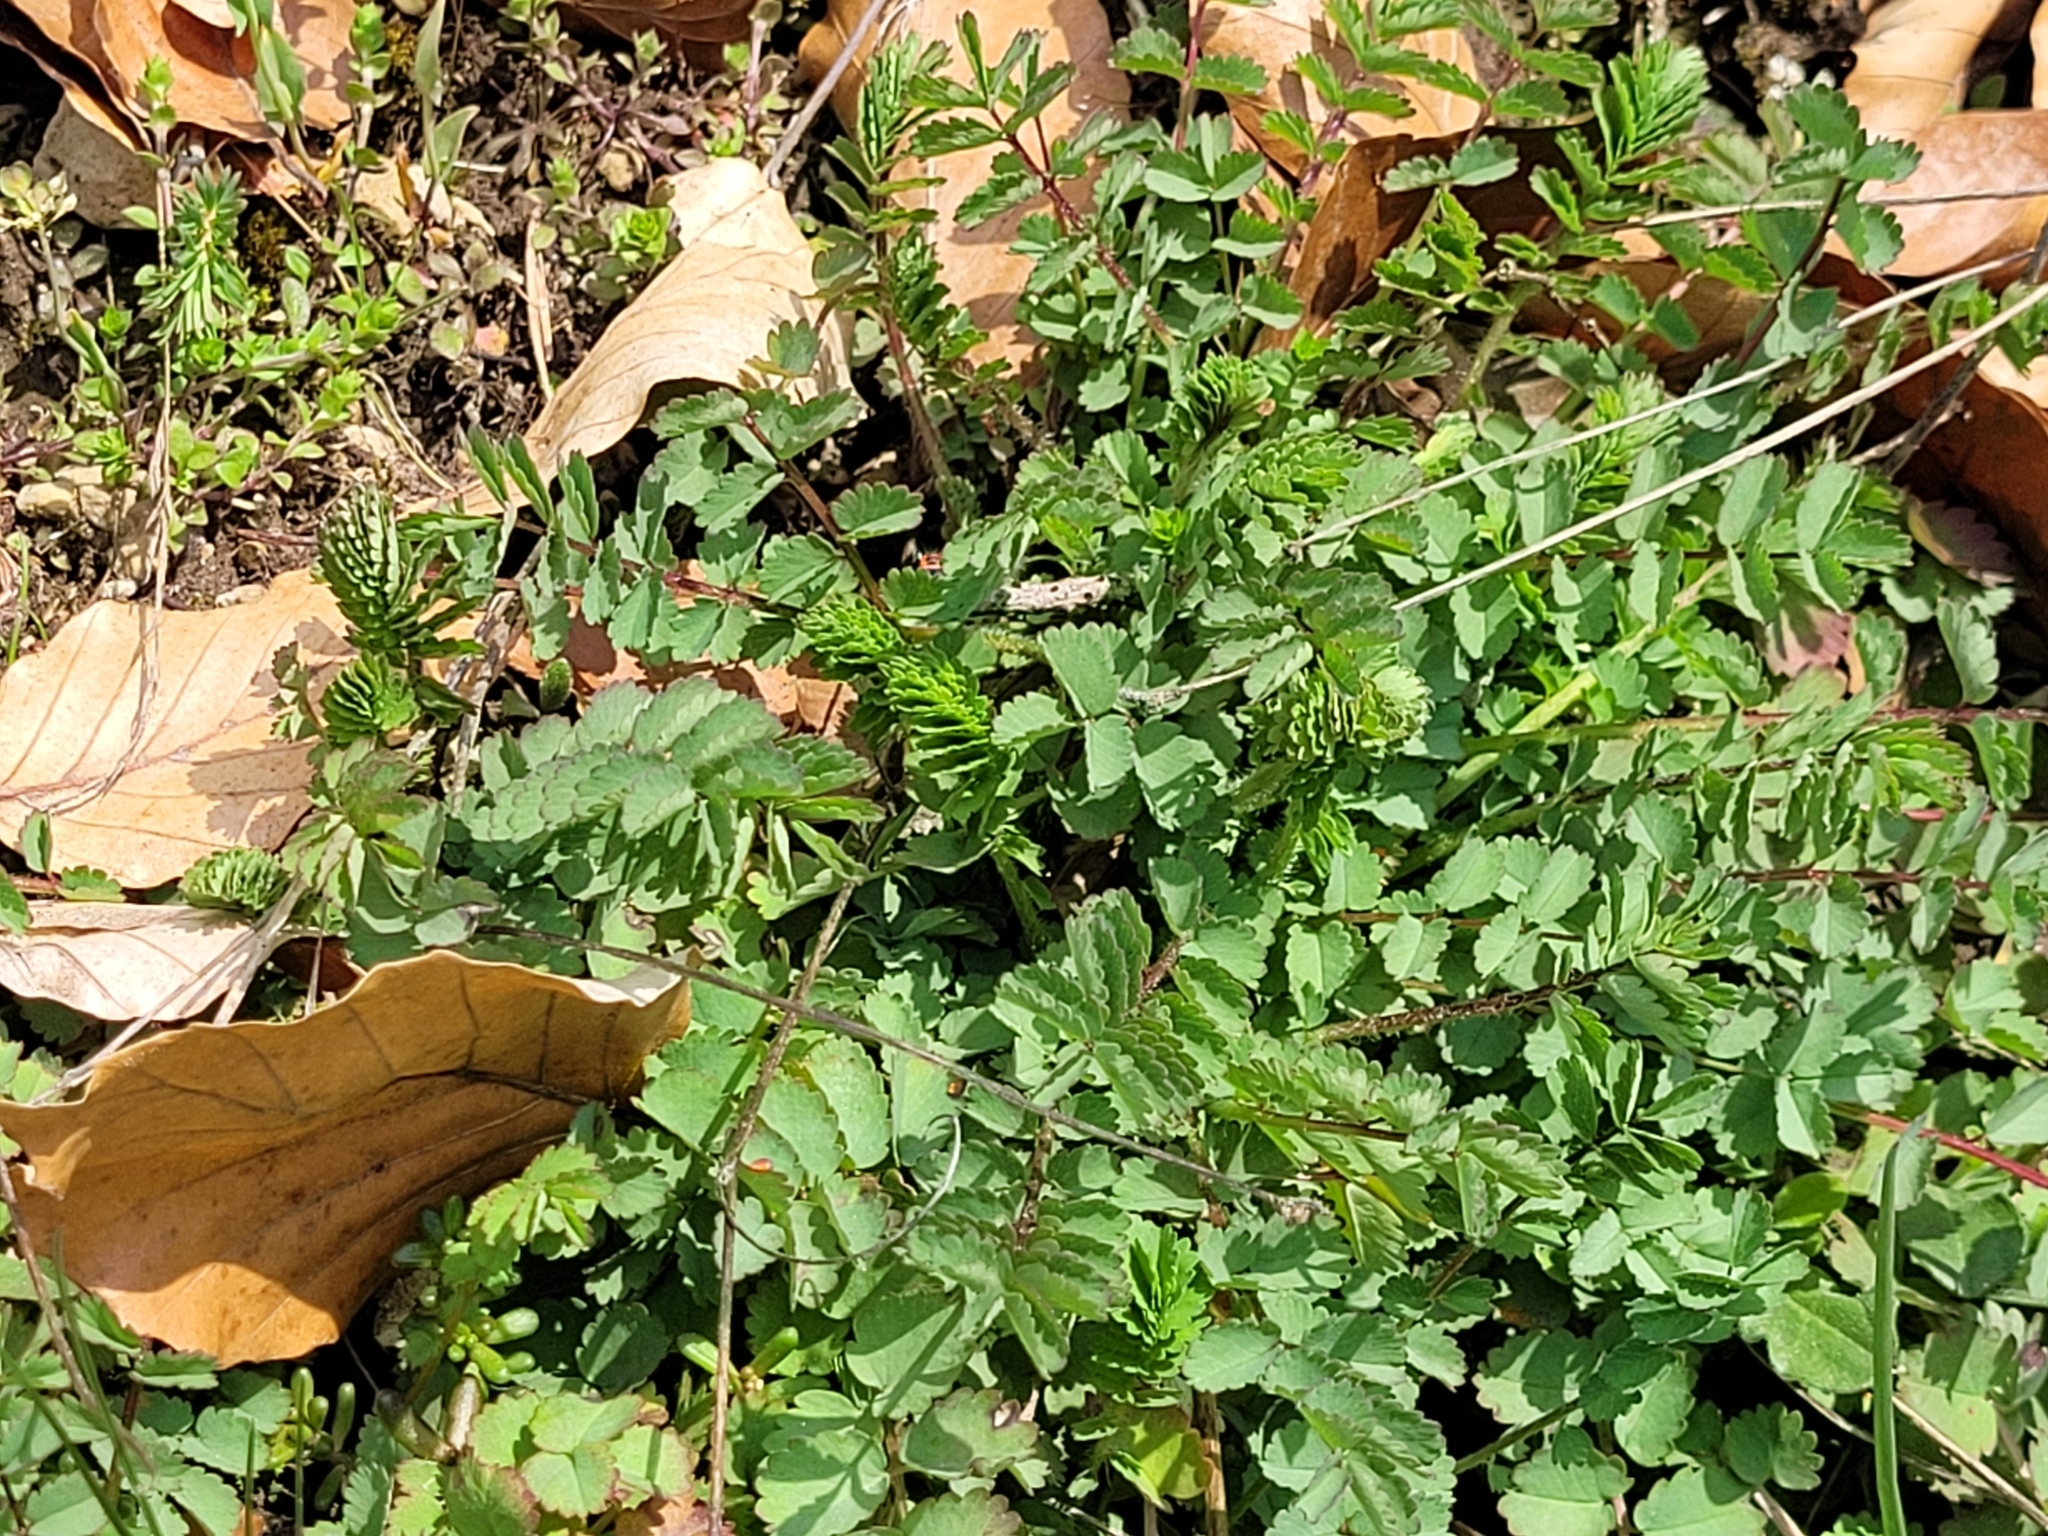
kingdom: Plantae
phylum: Tracheophyta
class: Magnoliopsida
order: Rosales
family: Rosaceae
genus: Poterium
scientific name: Poterium sanguisorba
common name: Salad burnet
